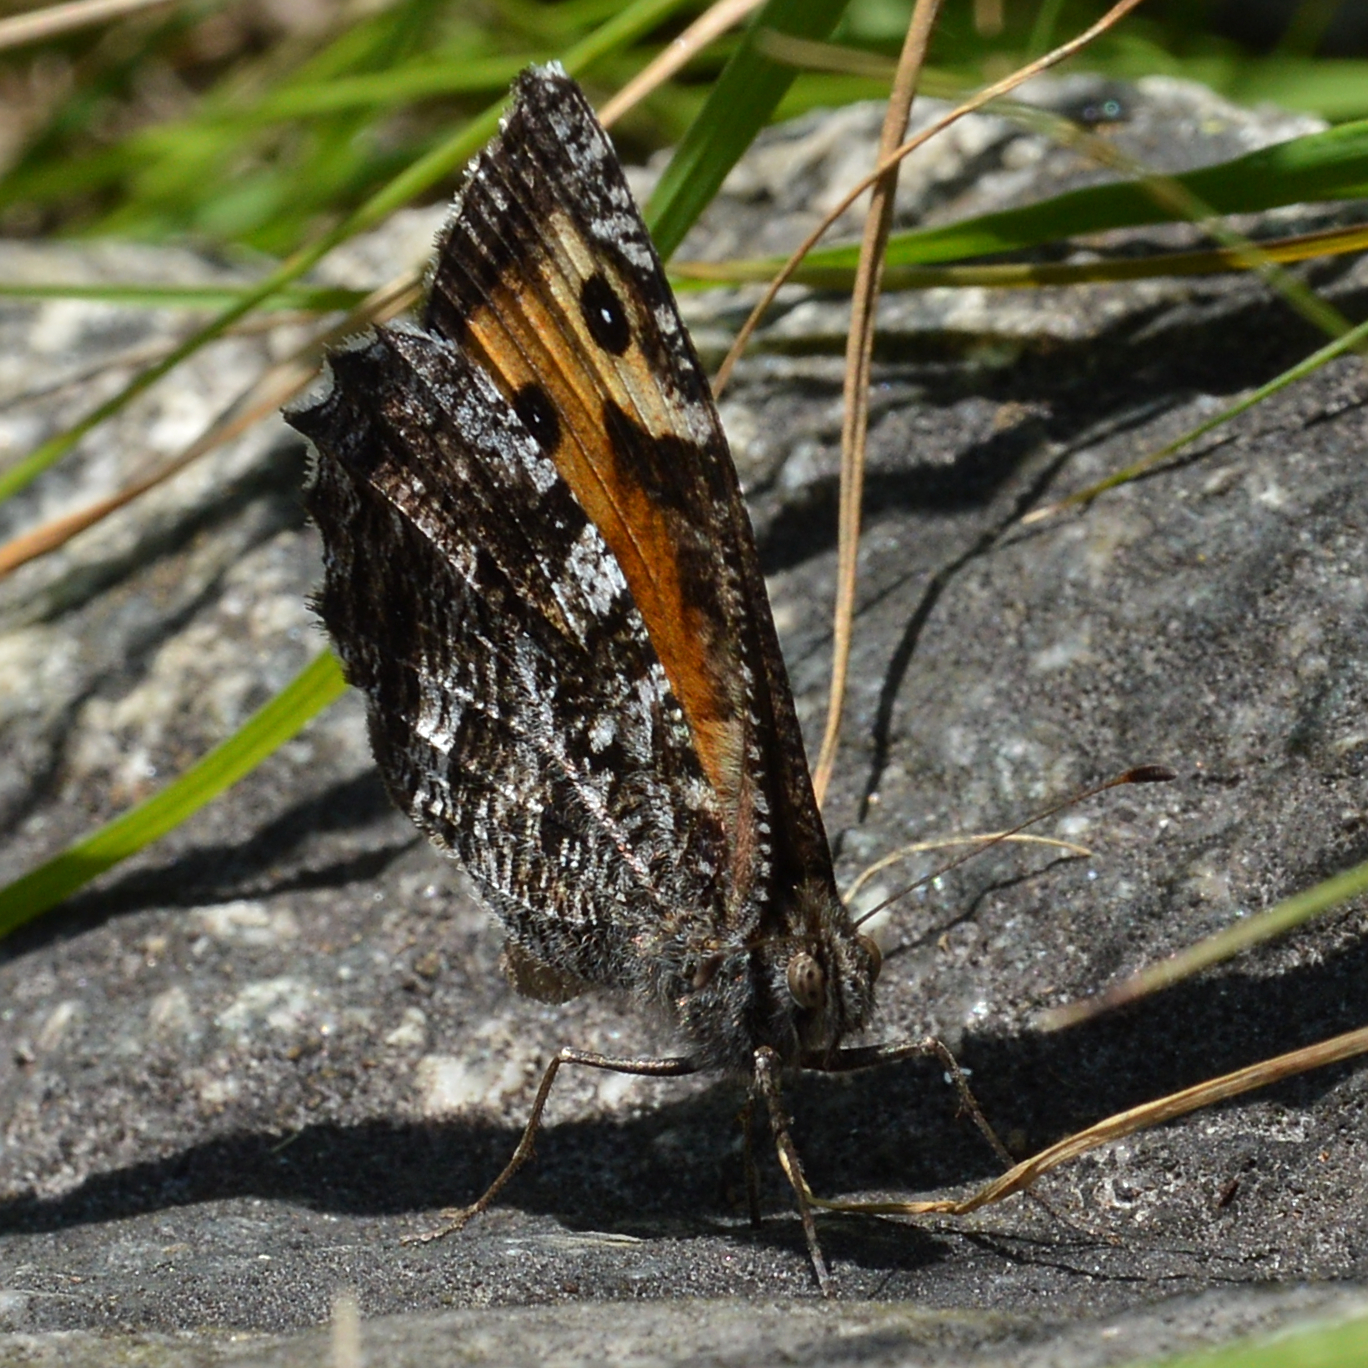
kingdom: Animalia
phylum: Arthropoda
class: Insecta
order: Lepidoptera
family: Nymphalidae
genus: Hipparchia
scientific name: Hipparchia semele
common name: Grayling
